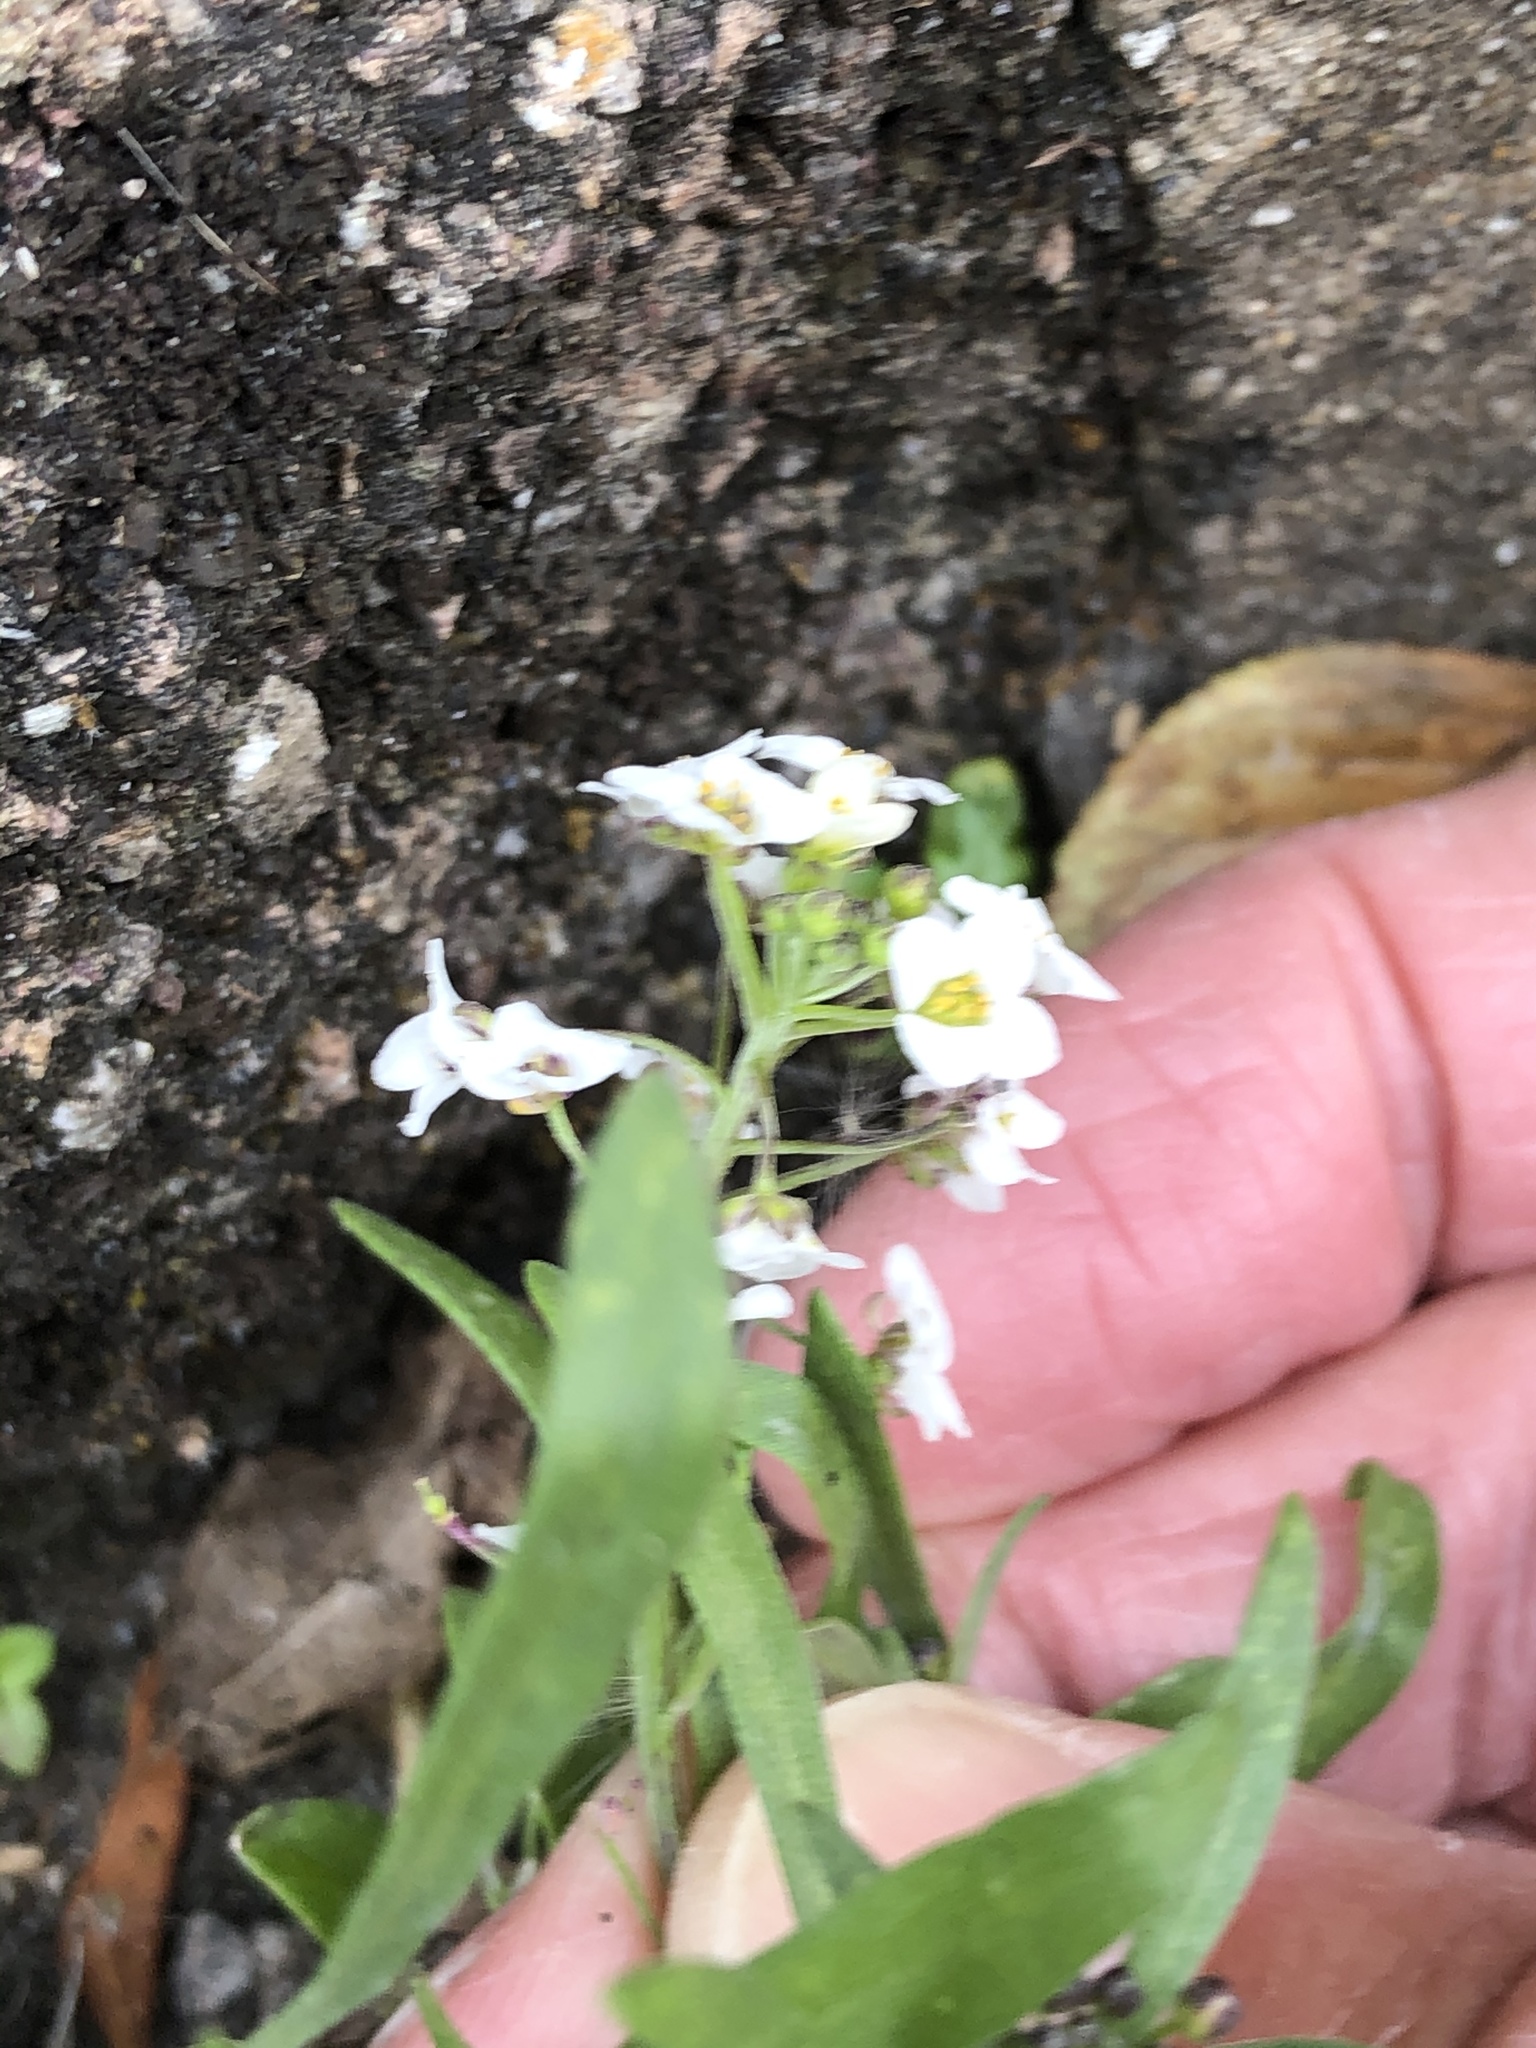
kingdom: Plantae
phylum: Tracheophyta
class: Magnoliopsida
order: Brassicales
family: Brassicaceae
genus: Lobularia
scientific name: Lobularia maritima
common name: Sweet alison
